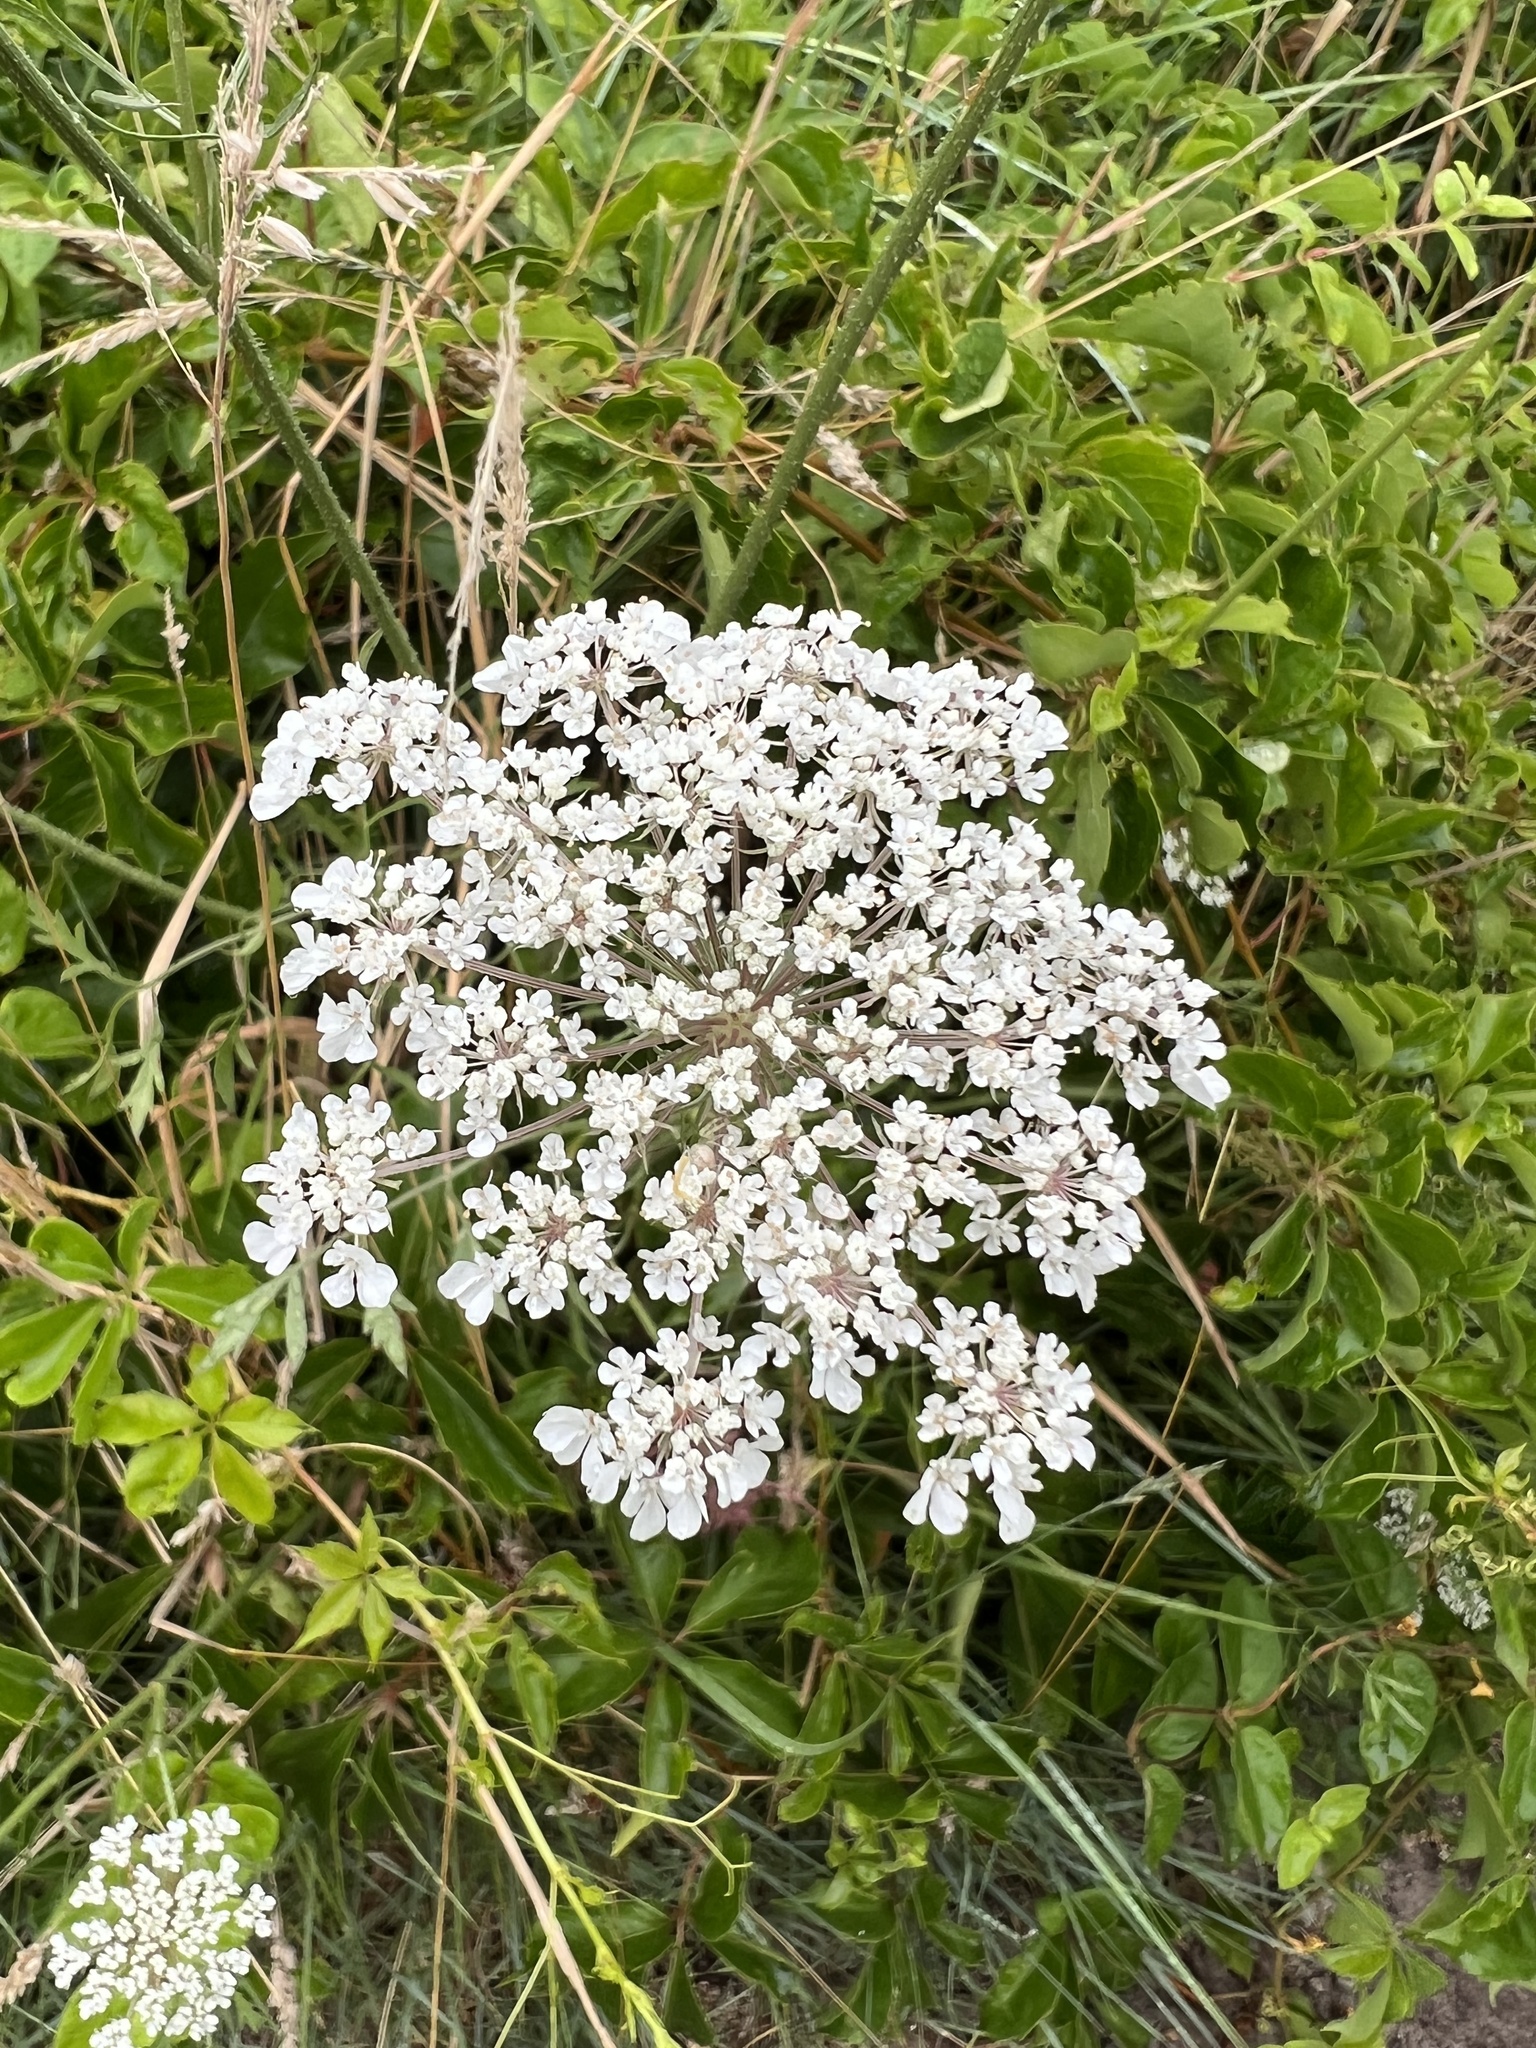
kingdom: Plantae
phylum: Tracheophyta
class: Magnoliopsida
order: Apiales
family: Apiaceae
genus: Daucus
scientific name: Daucus carota
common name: Wild carrot
